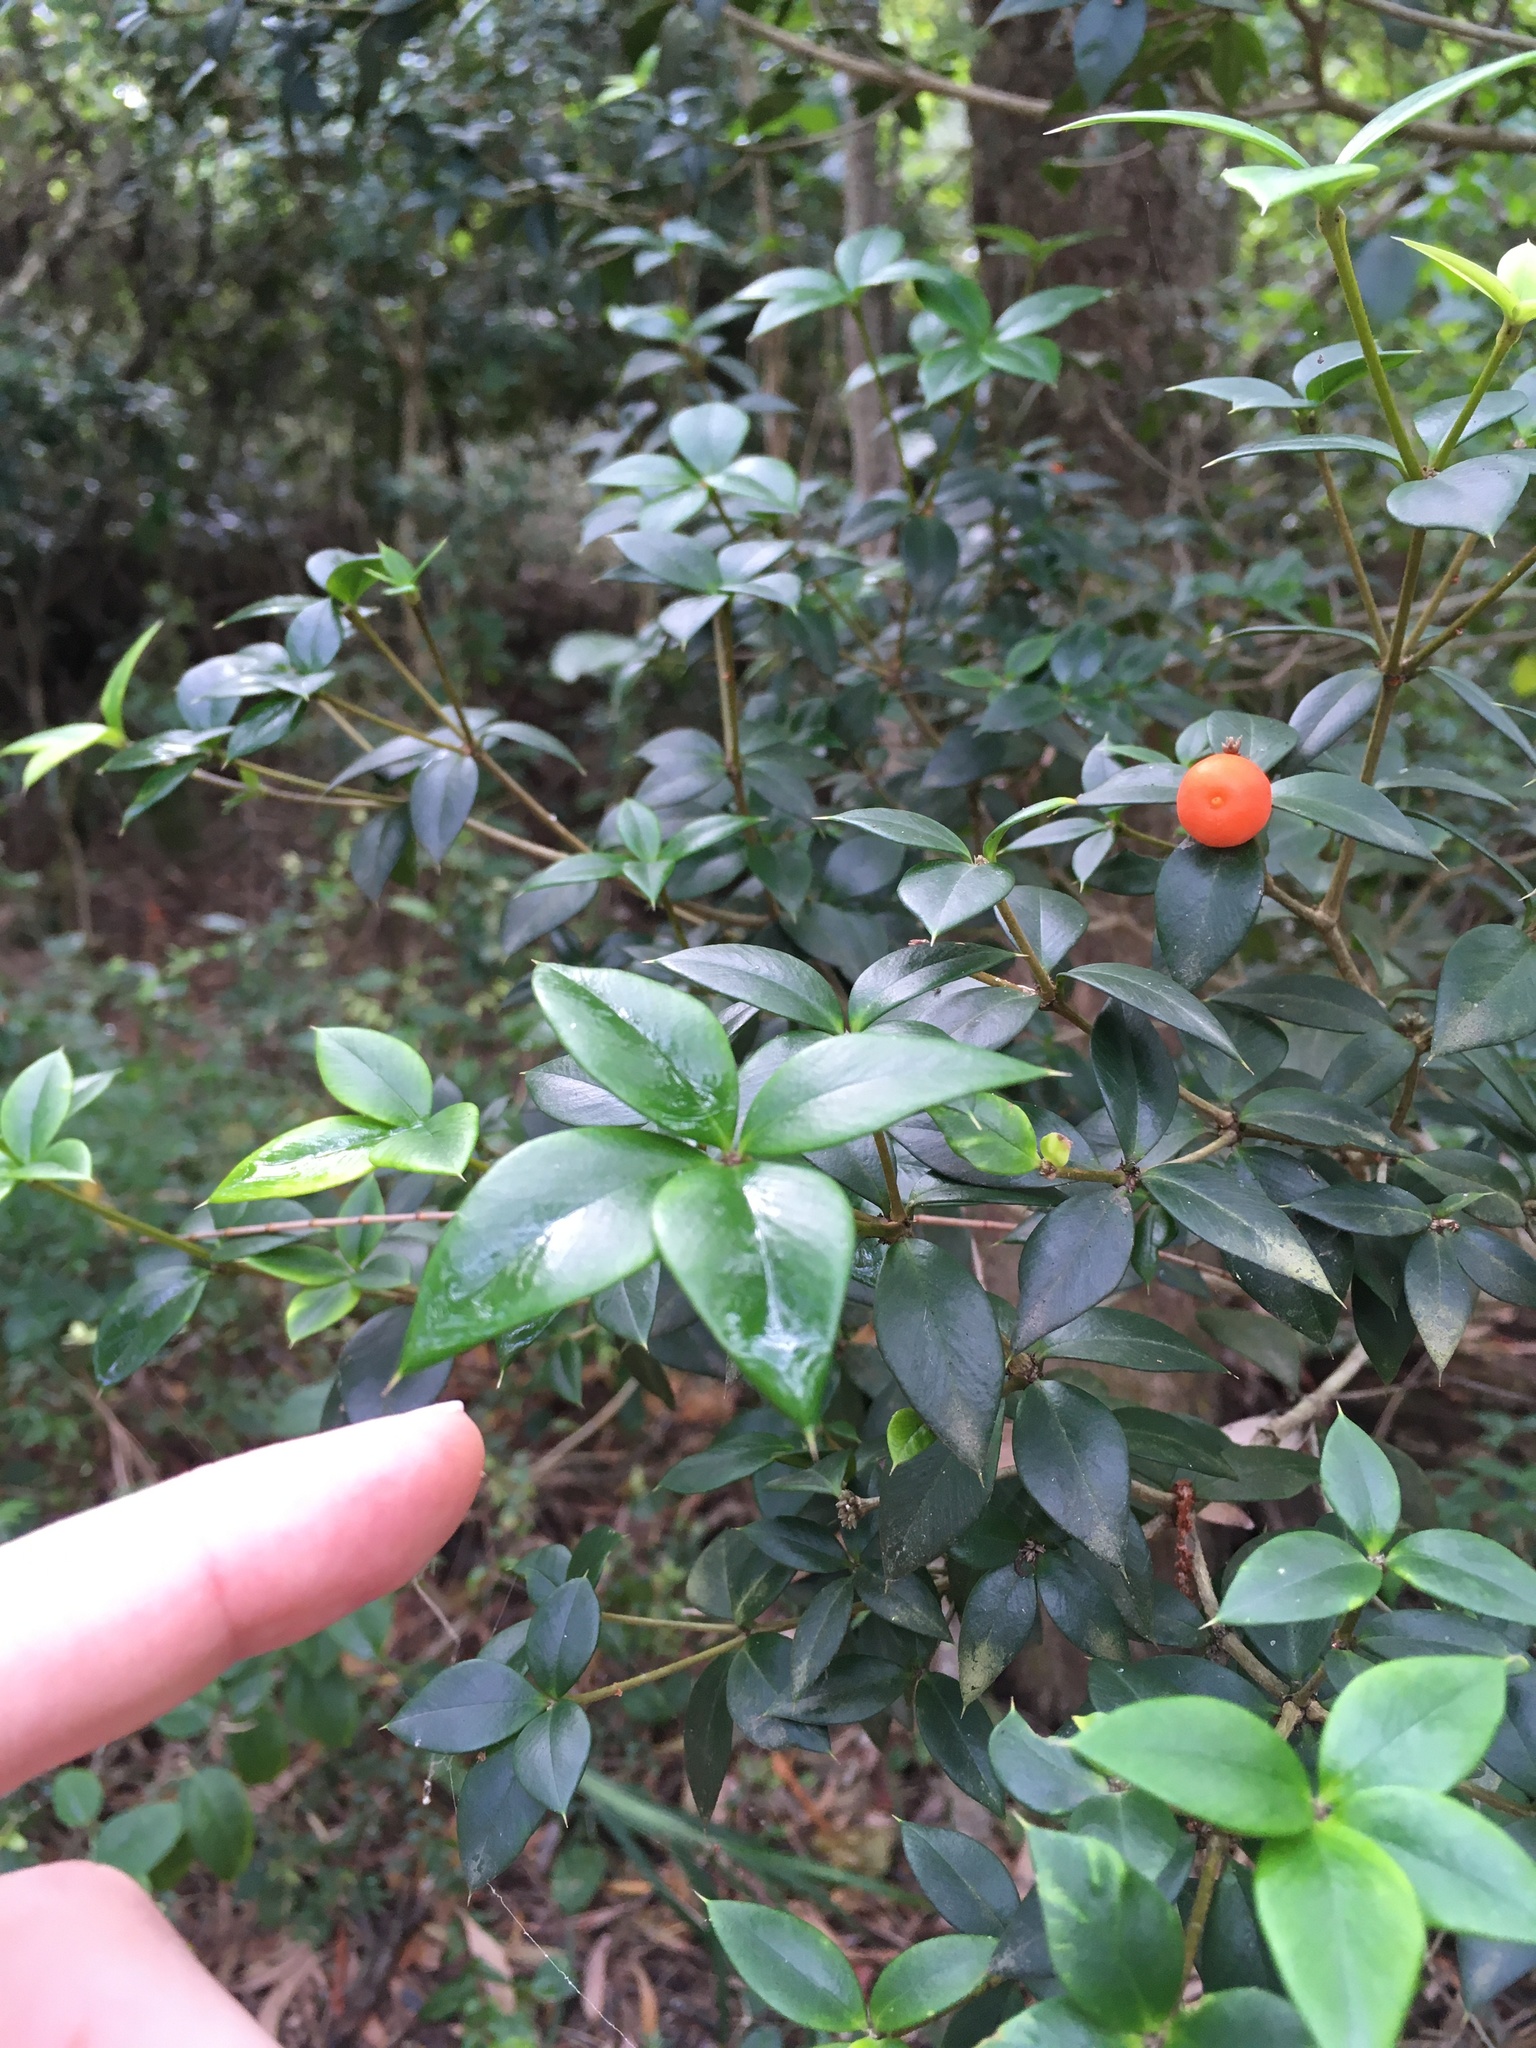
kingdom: Plantae
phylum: Tracheophyta
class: Magnoliopsida
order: Gentianales
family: Apocynaceae
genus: Alyxia
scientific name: Alyxia ruscifolia
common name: Chainfruit
